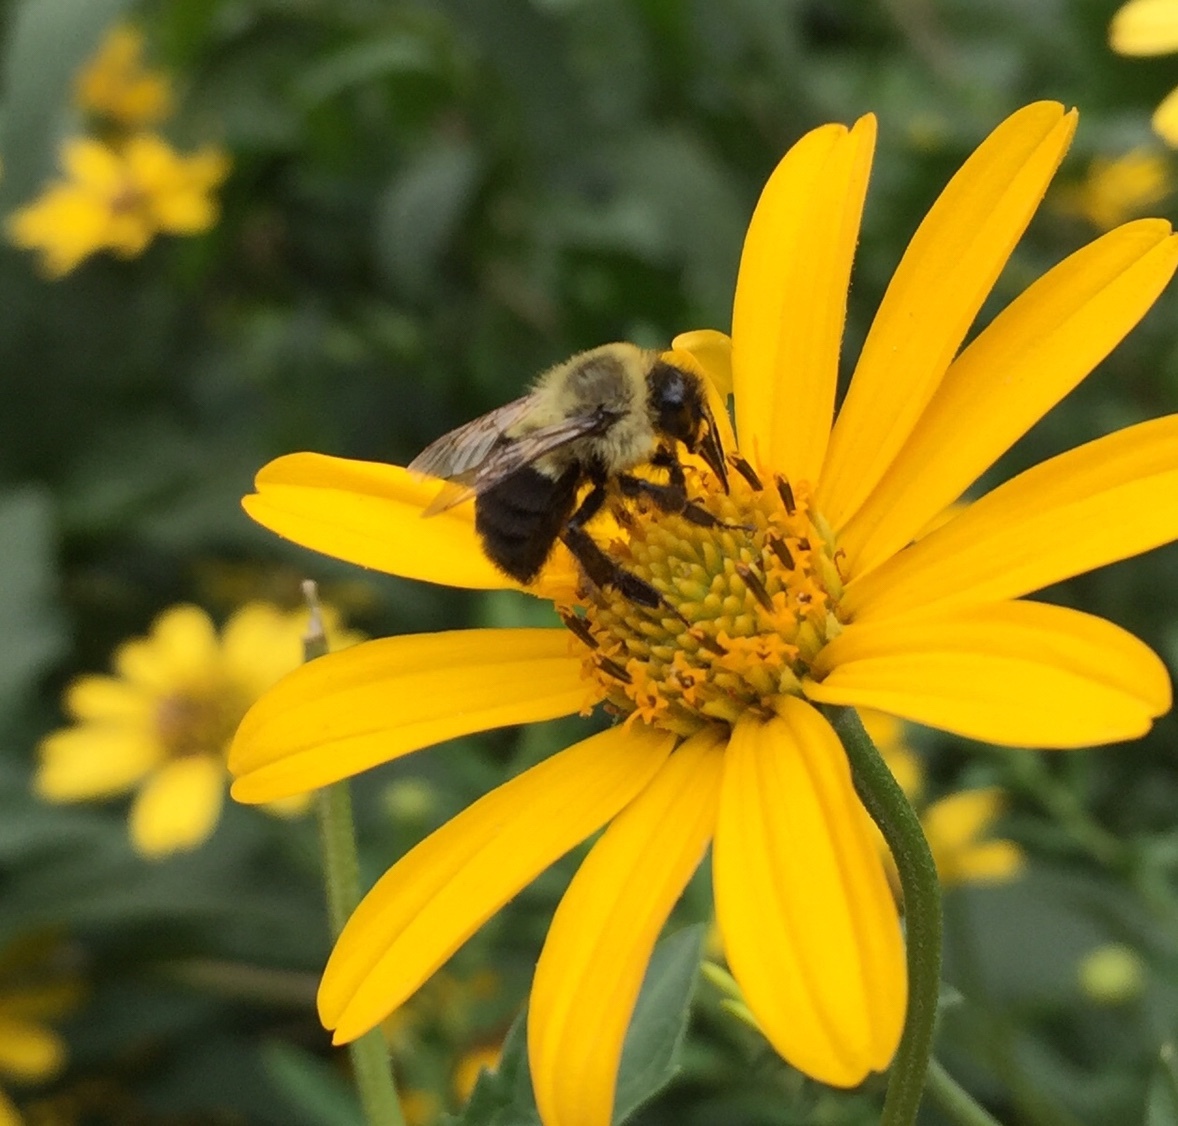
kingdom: Animalia
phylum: Arthropoda
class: Insecta
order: Hymenoptera
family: Apidae
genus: Bombus
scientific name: Bombus impatiens
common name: Common eastern bumble bee
